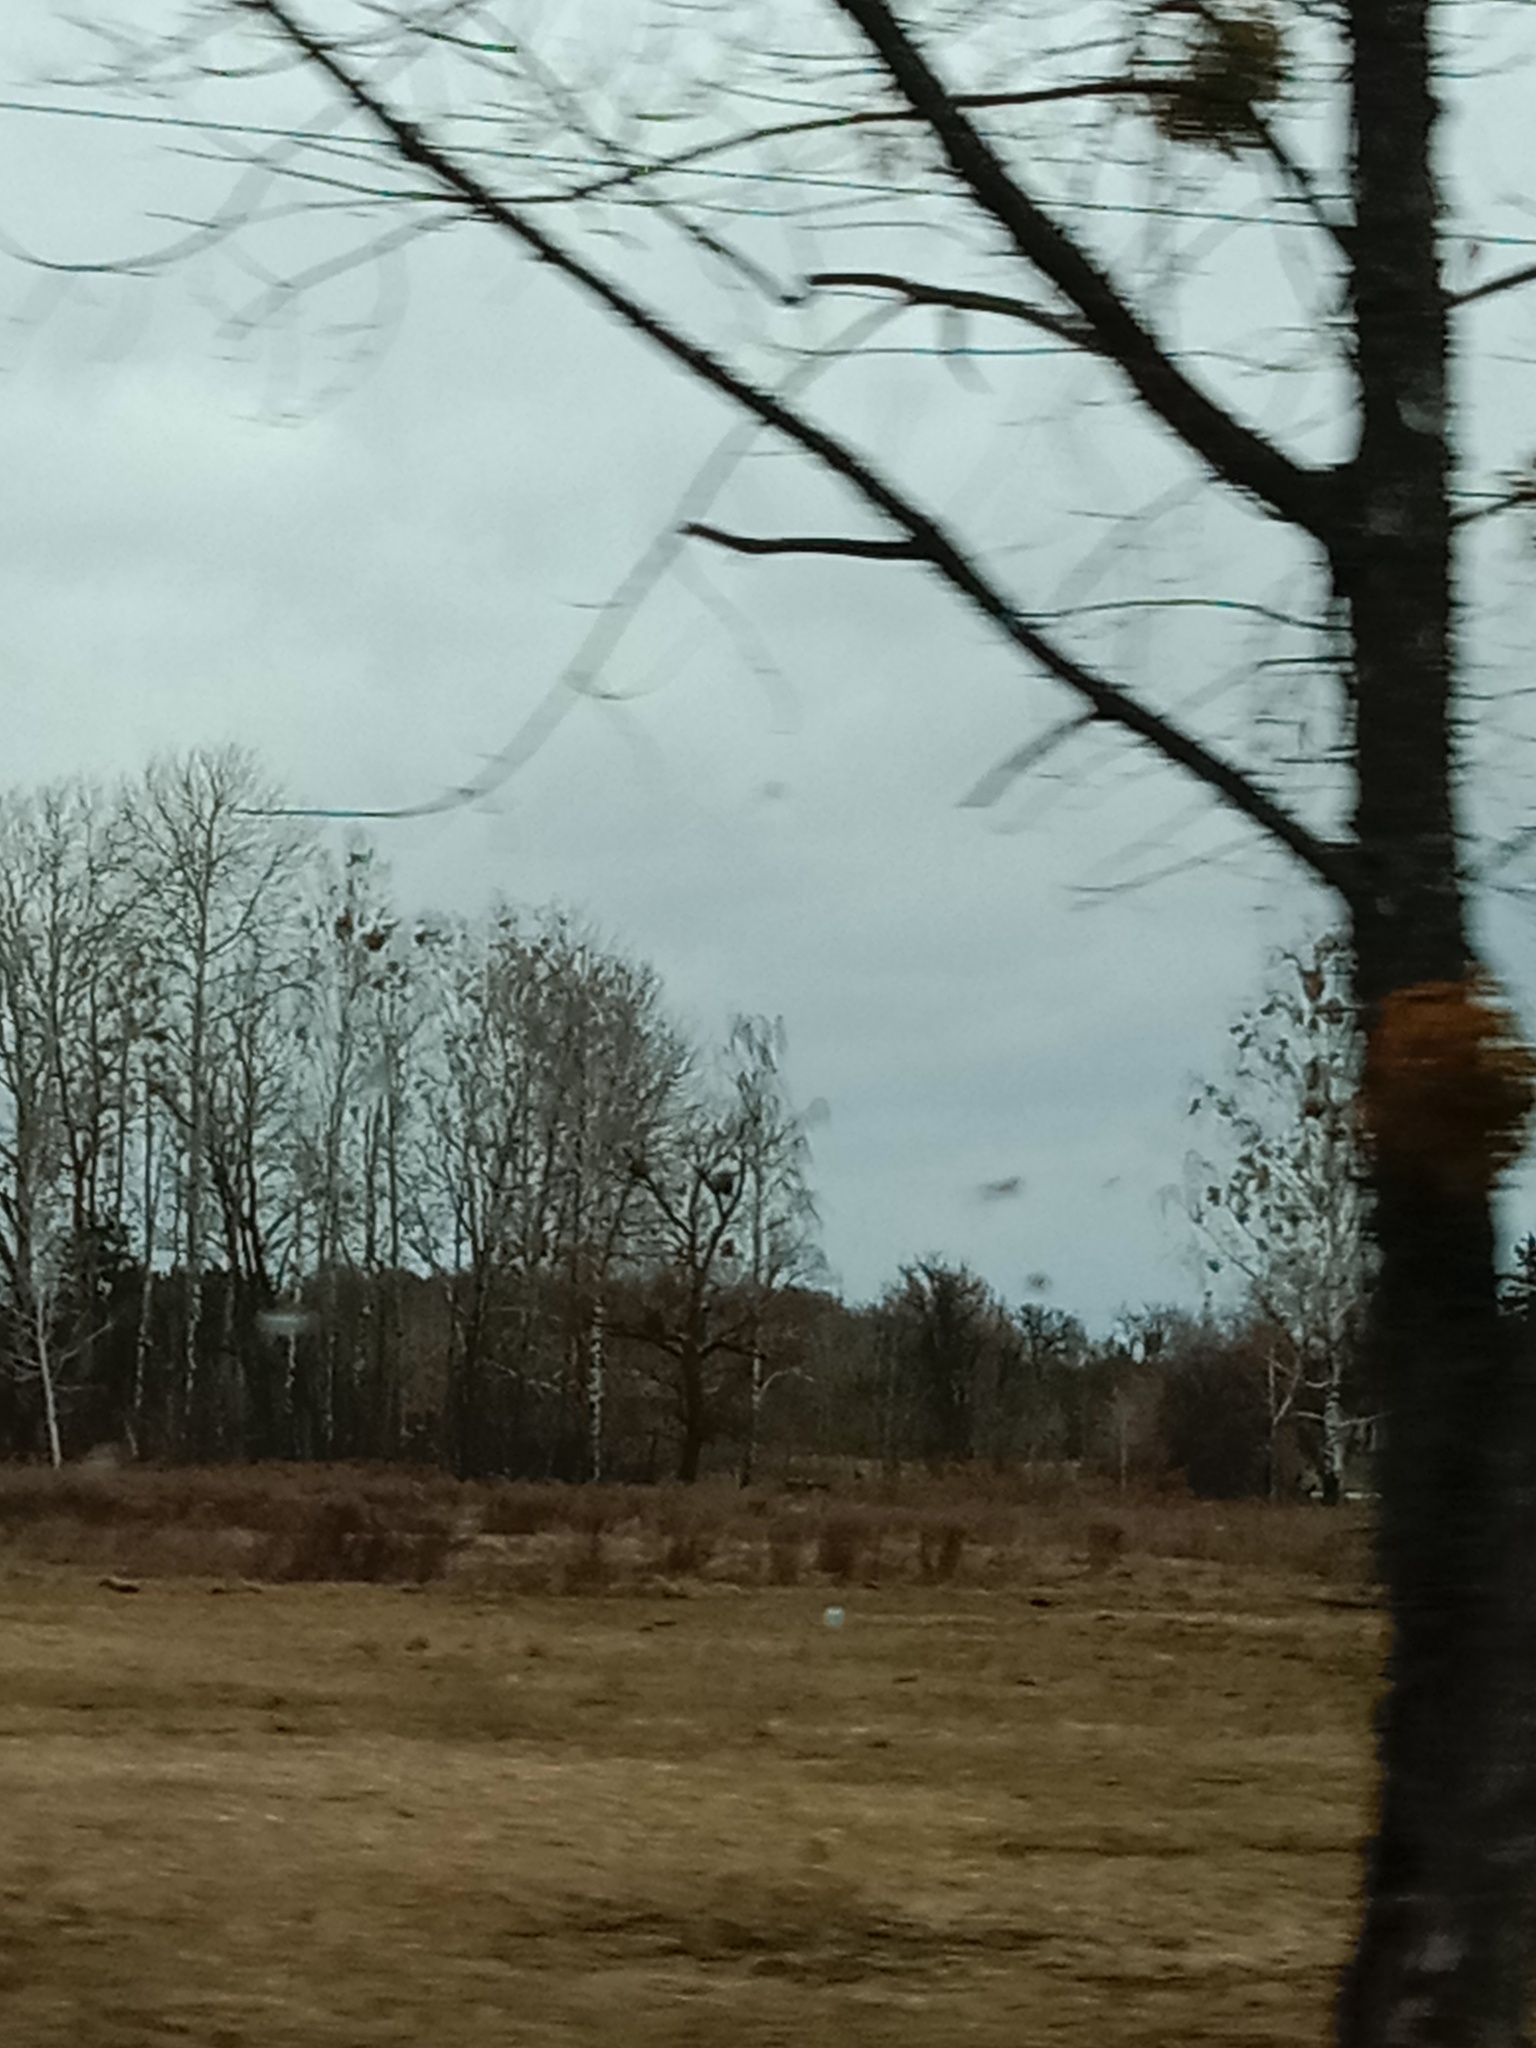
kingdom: Plantae
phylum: Tracheophyta
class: Magnoliopsida
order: Santalales
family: Viscaceae
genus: Viscum
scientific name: Viscum album
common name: Mistletoe
